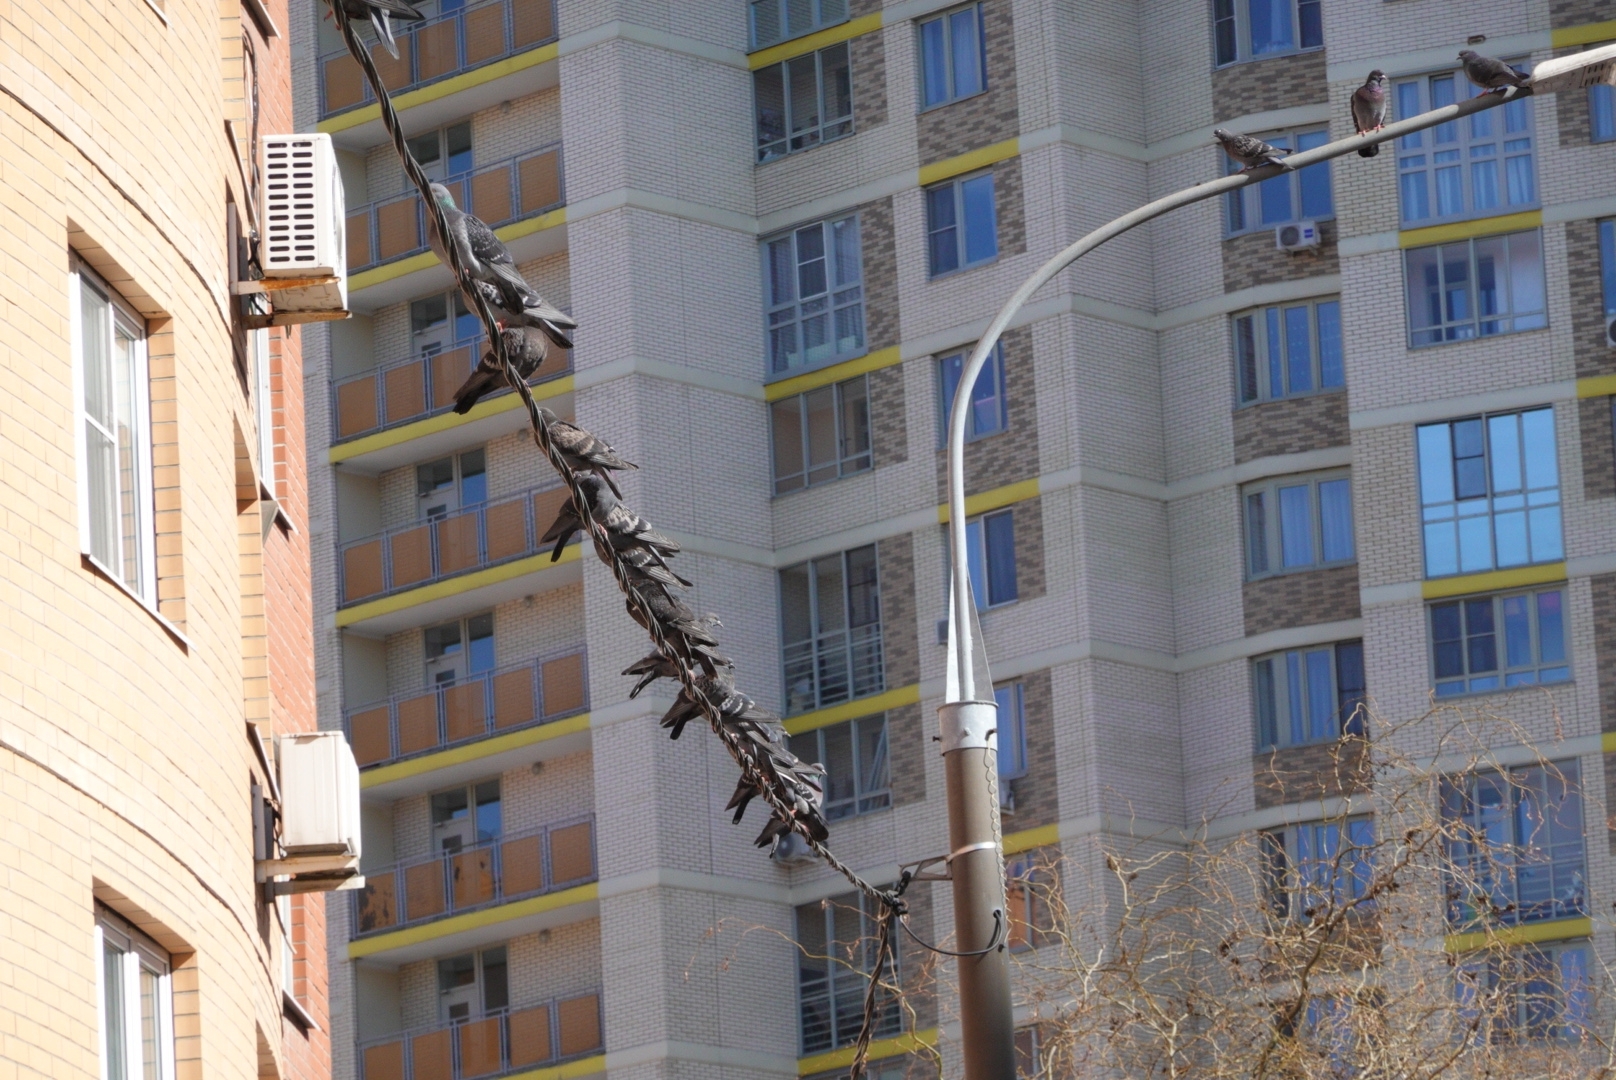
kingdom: Animalia
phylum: Chordata
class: Aves
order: Columbiformes
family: Columbidae
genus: Columba
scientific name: Columba livia
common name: Rock pigeon
